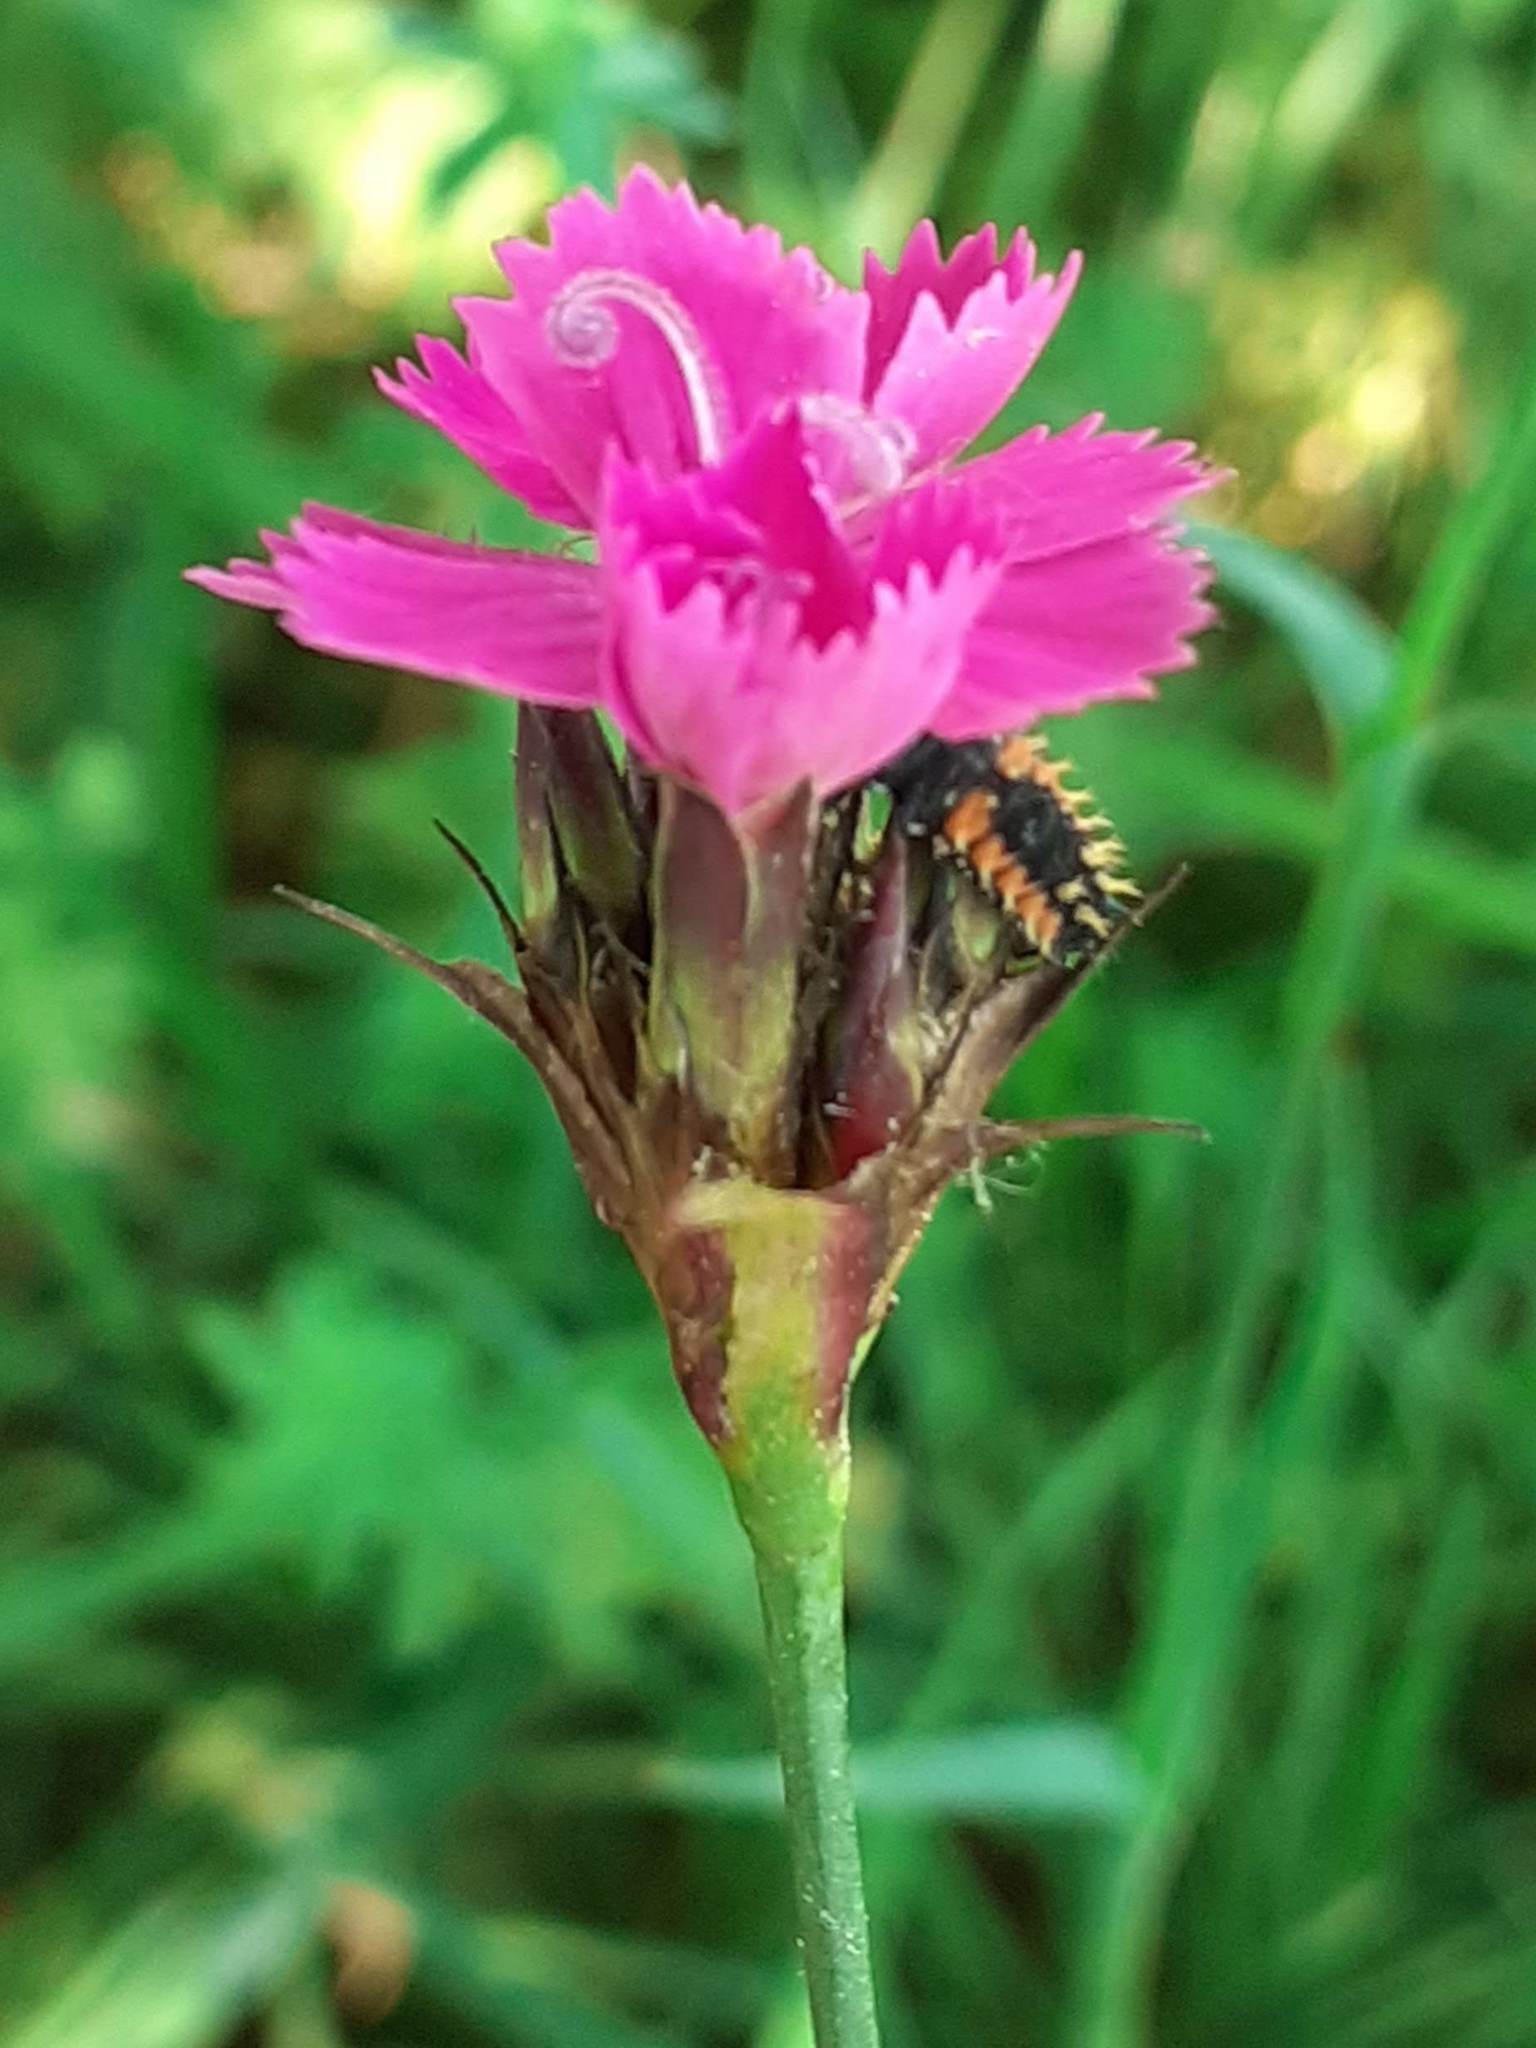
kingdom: Plantae
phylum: Tracheophyta
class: Magnoliopsida
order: Caryophyllales
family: Caryophyllaceae
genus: Dianthus
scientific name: Dianthus carthusianorum
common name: Carthusian pink
